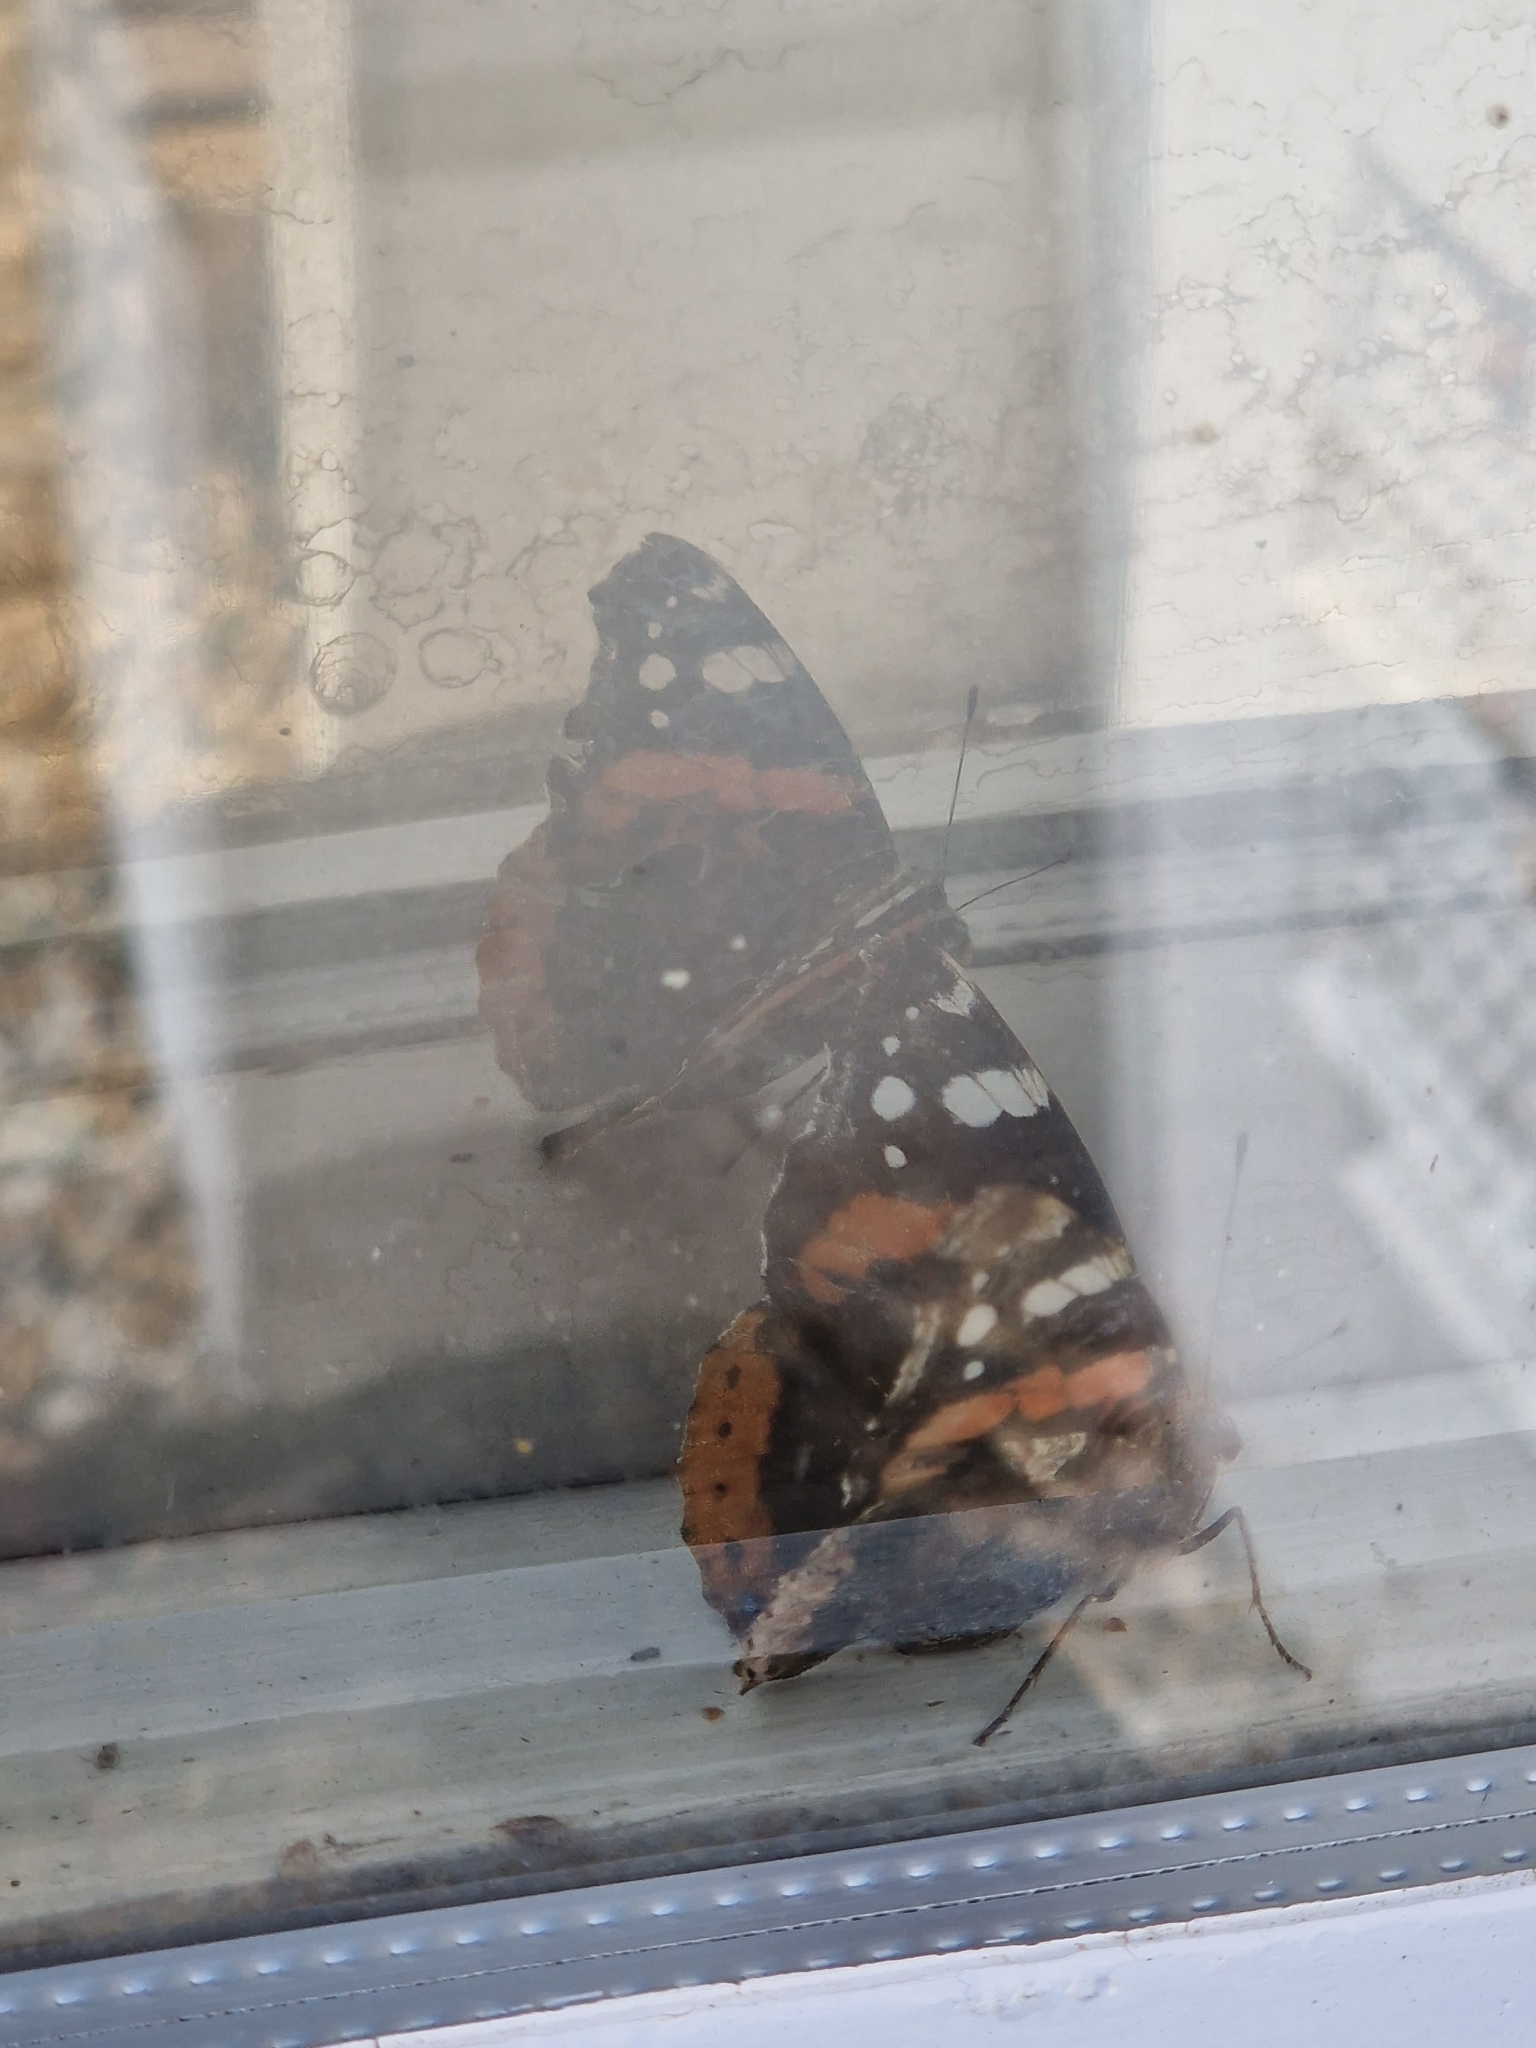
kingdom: Animalia
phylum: Arthropoda
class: Insecta
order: Lepidoptera
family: Nymphalidae
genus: Vanessa
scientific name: Vanessa atalanta
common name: Red admiral
